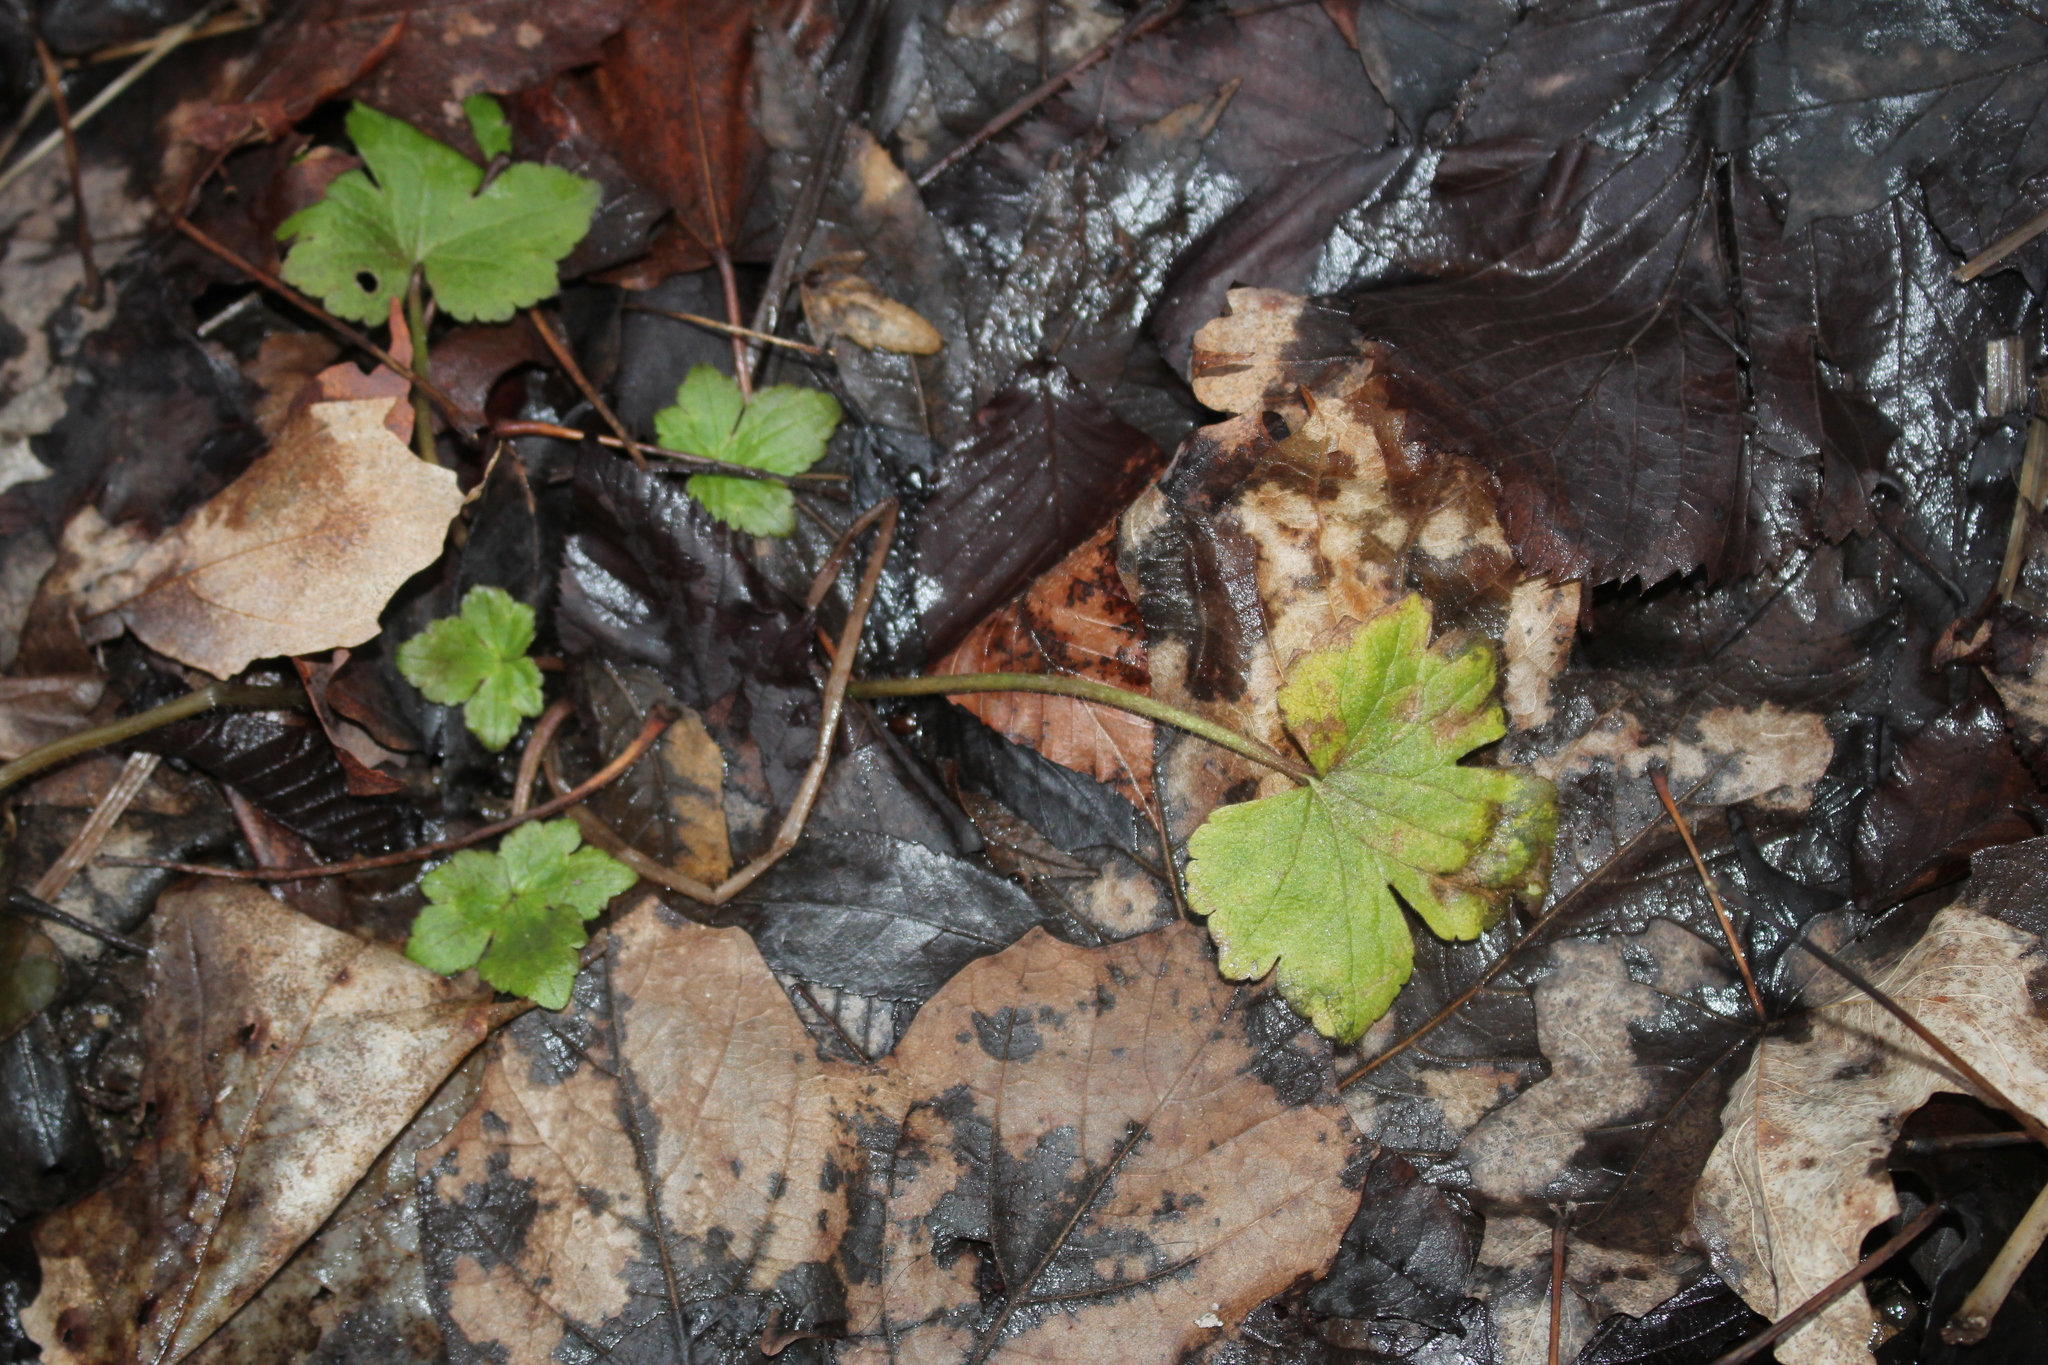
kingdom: Plantae
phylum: Tracheophyta
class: Magnoliopsida
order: Ranunculales
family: Ranunculaceae
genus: Ranunculus
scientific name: Ranunculus recurvatus
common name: Blisterwort
